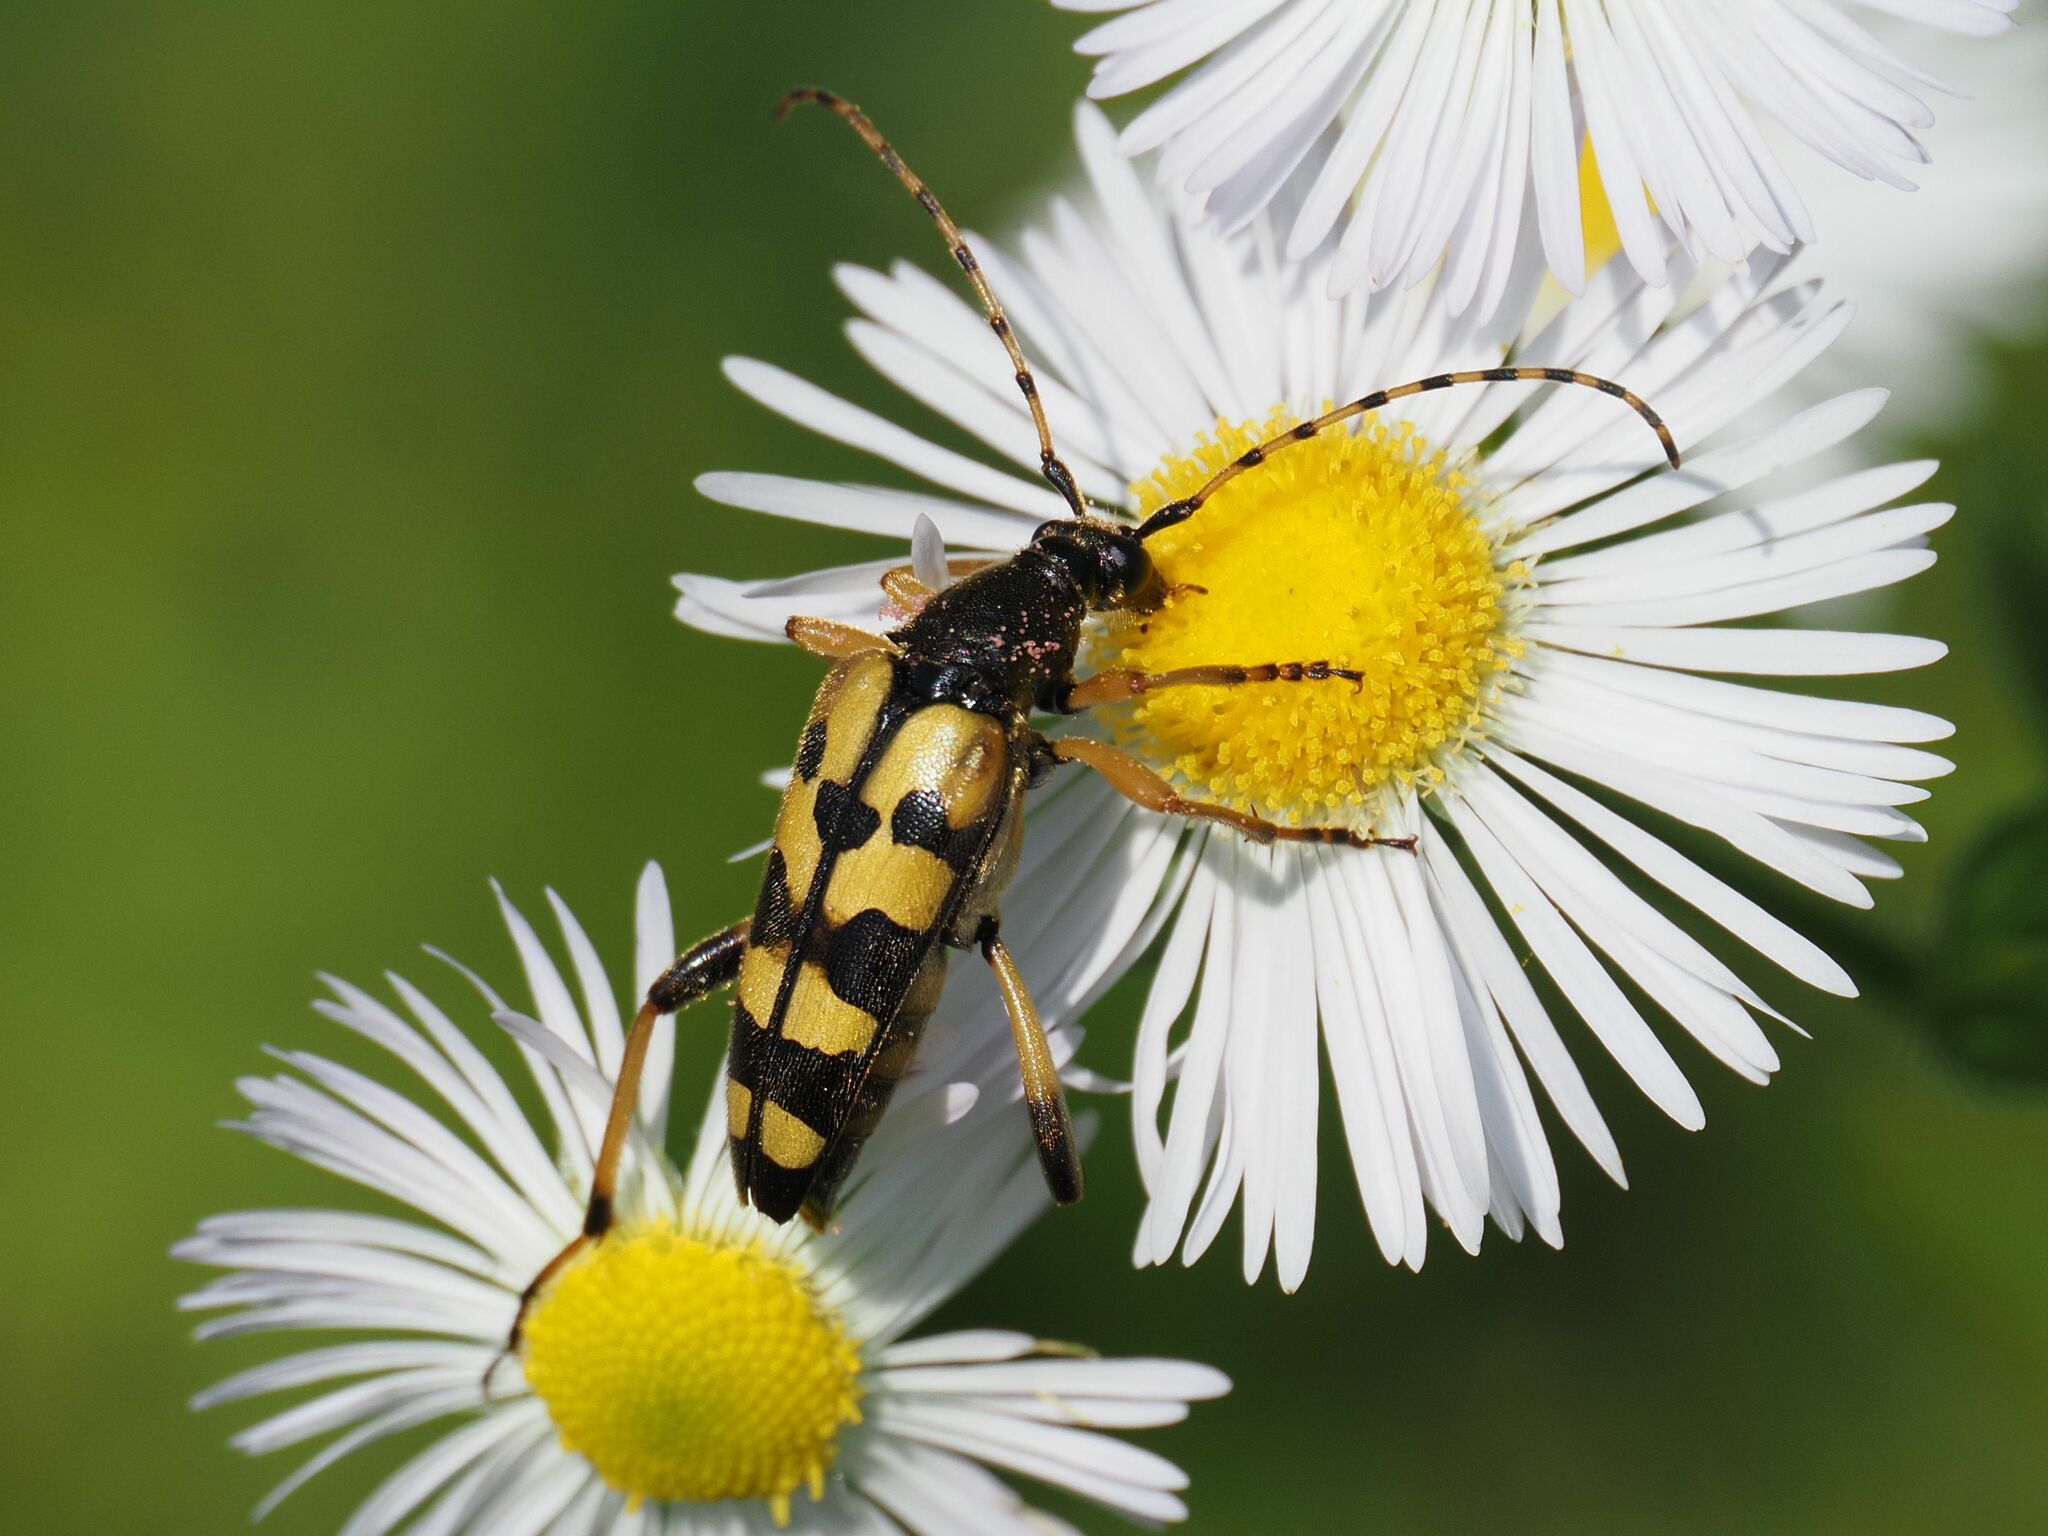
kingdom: Animalia
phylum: Arthropoda
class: Insecta
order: Coleoptera
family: Cerambycidae
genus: Rutpela
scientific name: Rutpela maculata
